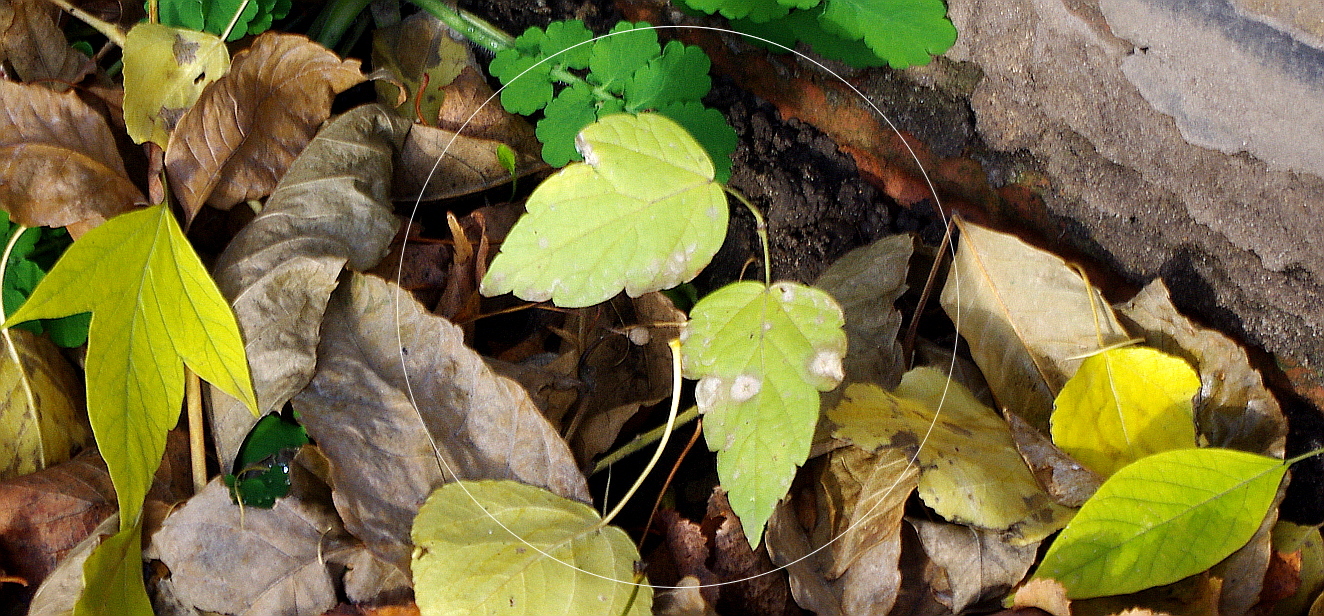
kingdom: Plantae
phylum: Tracheophyta
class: Magnoliopsida
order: Sapindales
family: Sapindaceae
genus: Acer
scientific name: Acer negundo
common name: Ashleaf maple
